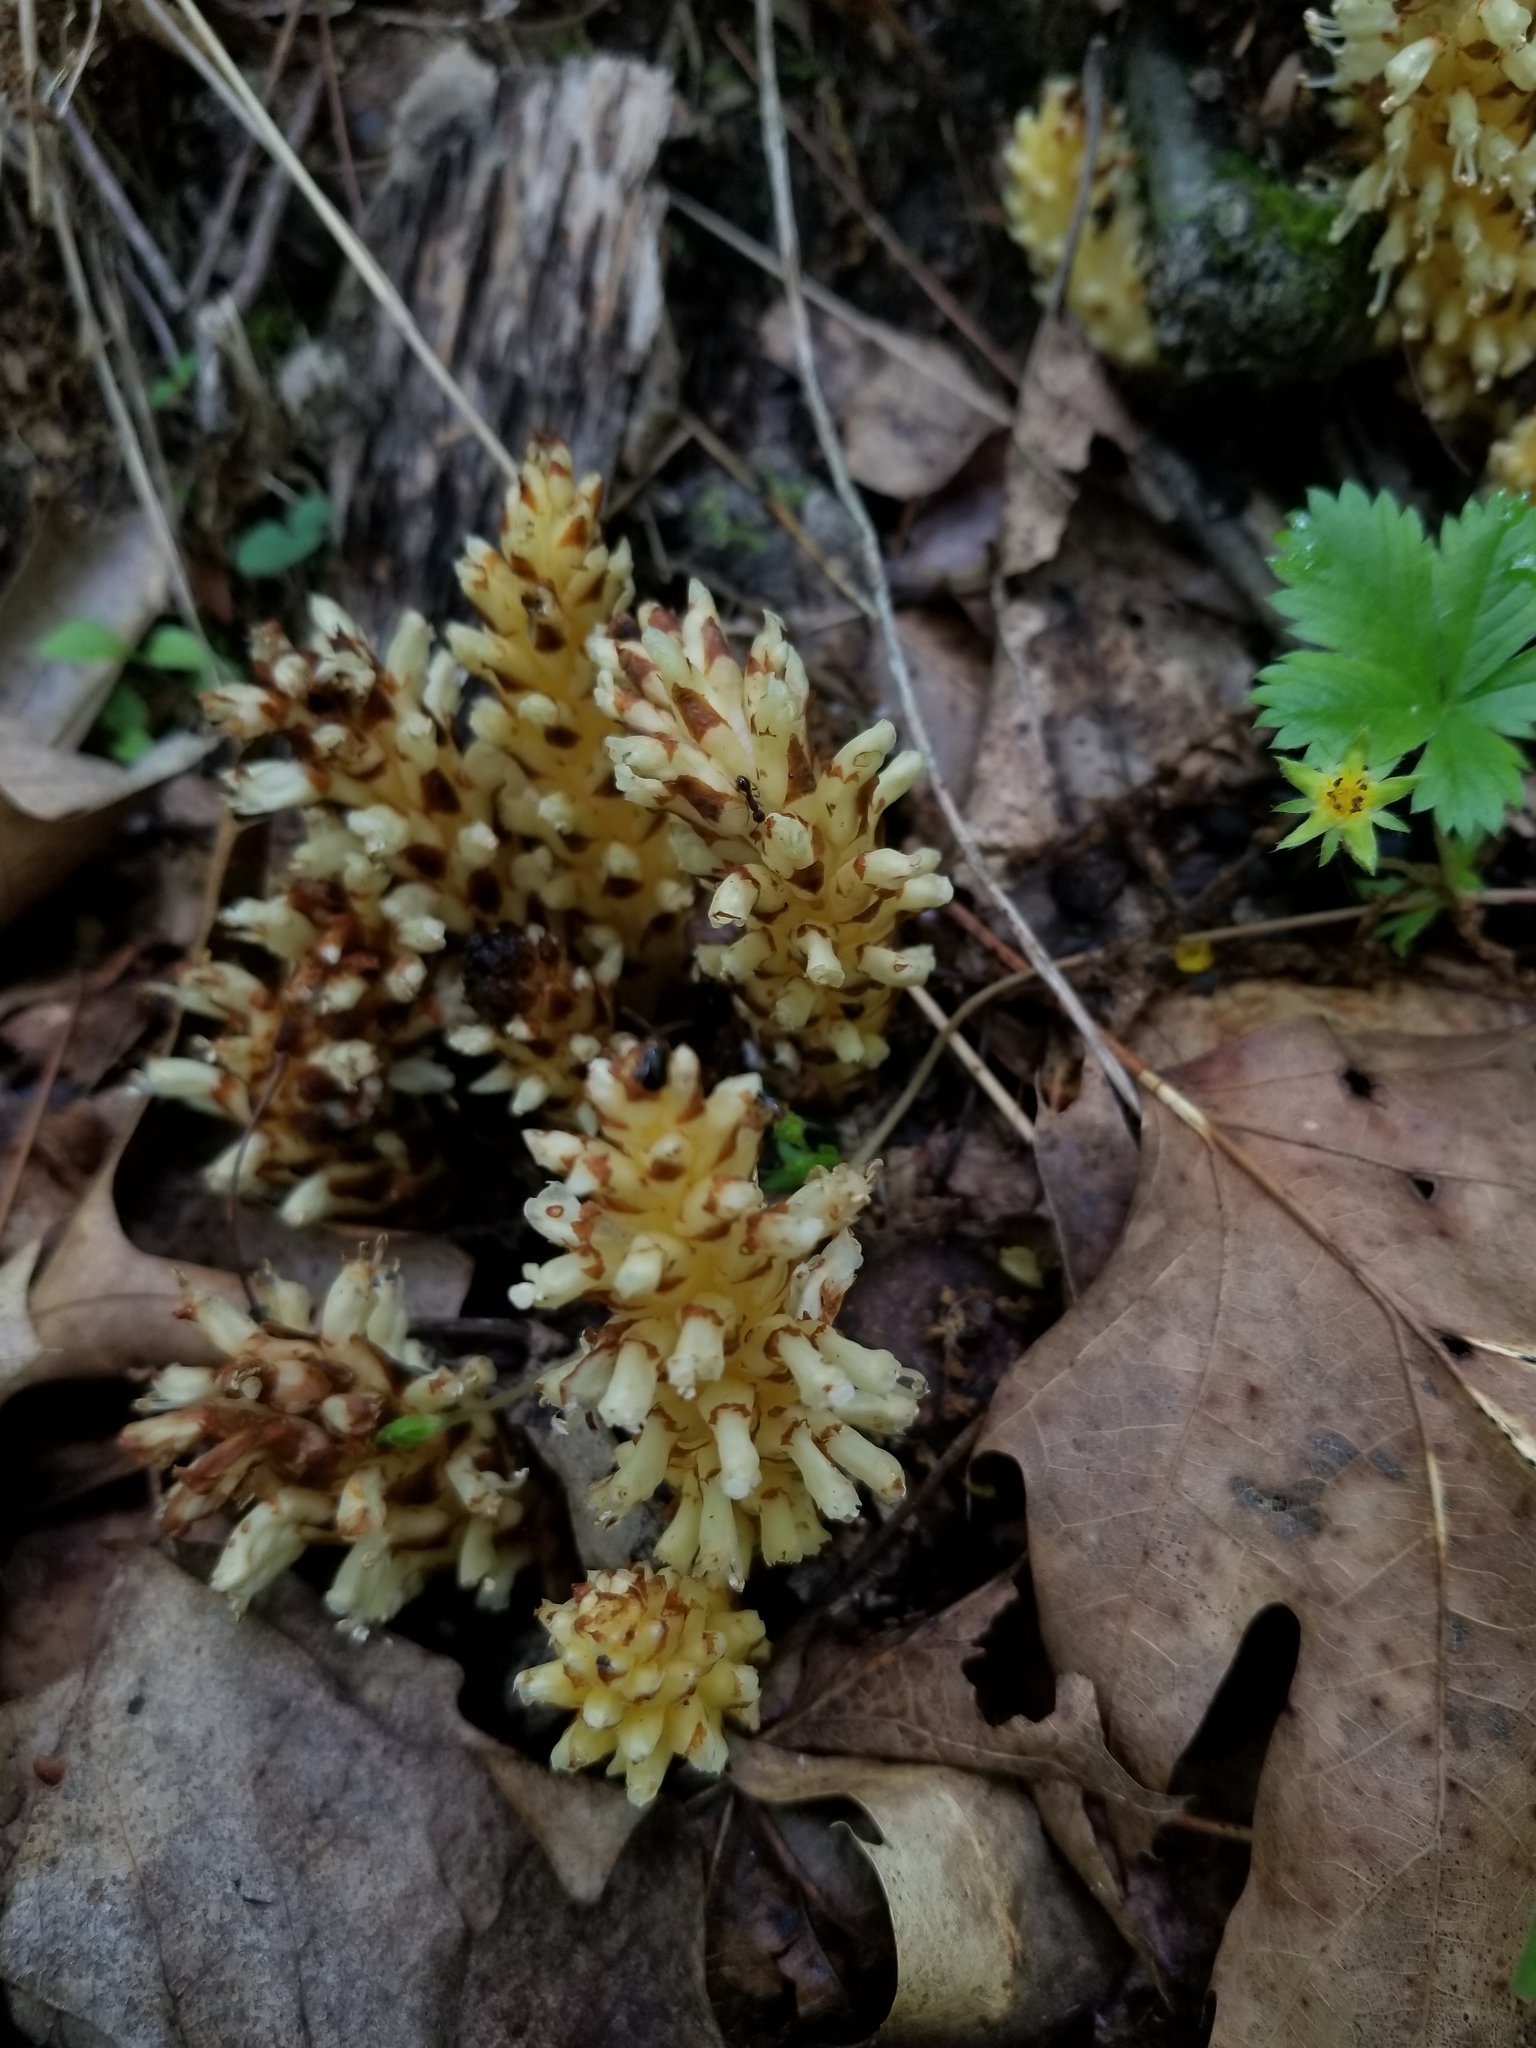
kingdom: Plantae
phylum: Tracheophyta
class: Magnoliopsida
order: Lamiales
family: Orobanchaceae
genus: Conopholis
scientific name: Conopholis americana
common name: American cancer-root
